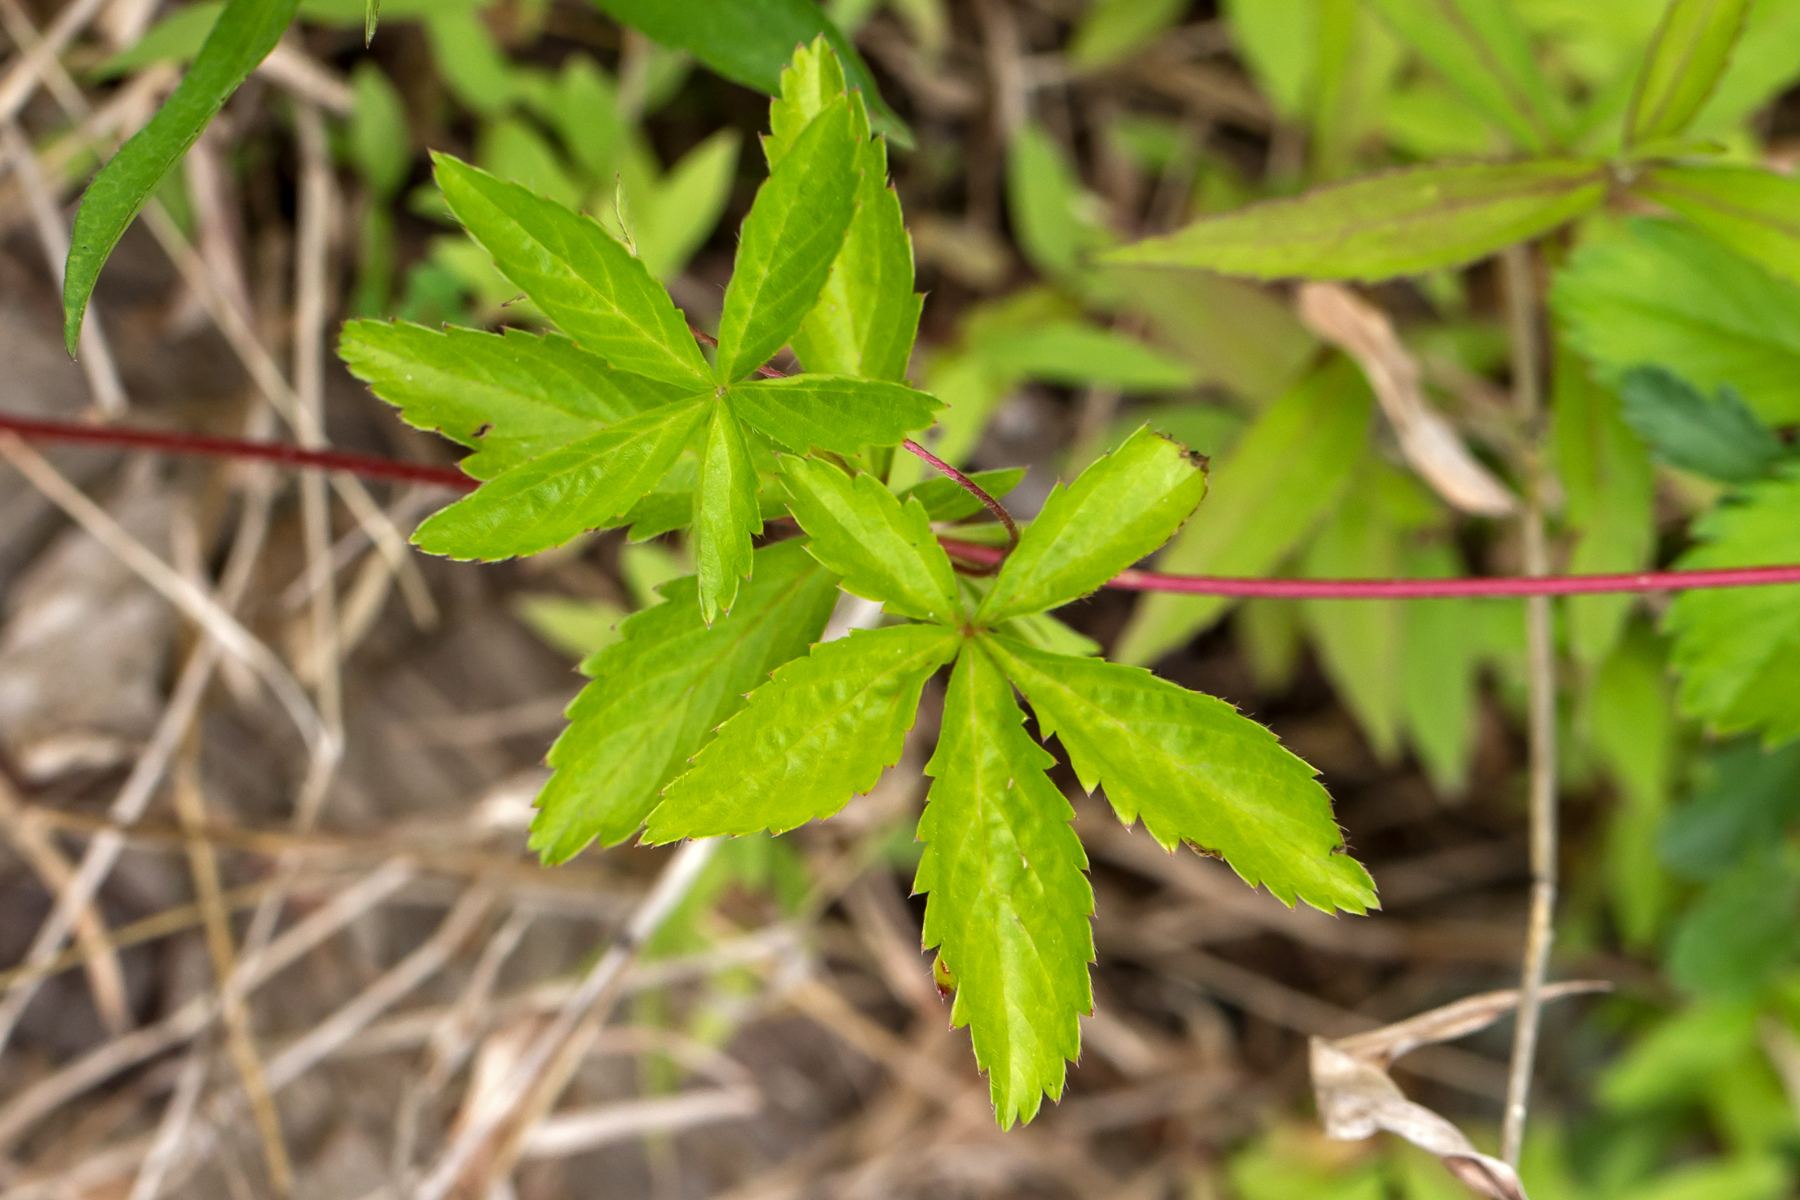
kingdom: Plantae
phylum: Tracheophyta
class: Magnoliopsida
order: Rosales
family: Rosaceae
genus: Potentilla
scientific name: Potentilla simplex
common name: Old field cinquefoil
